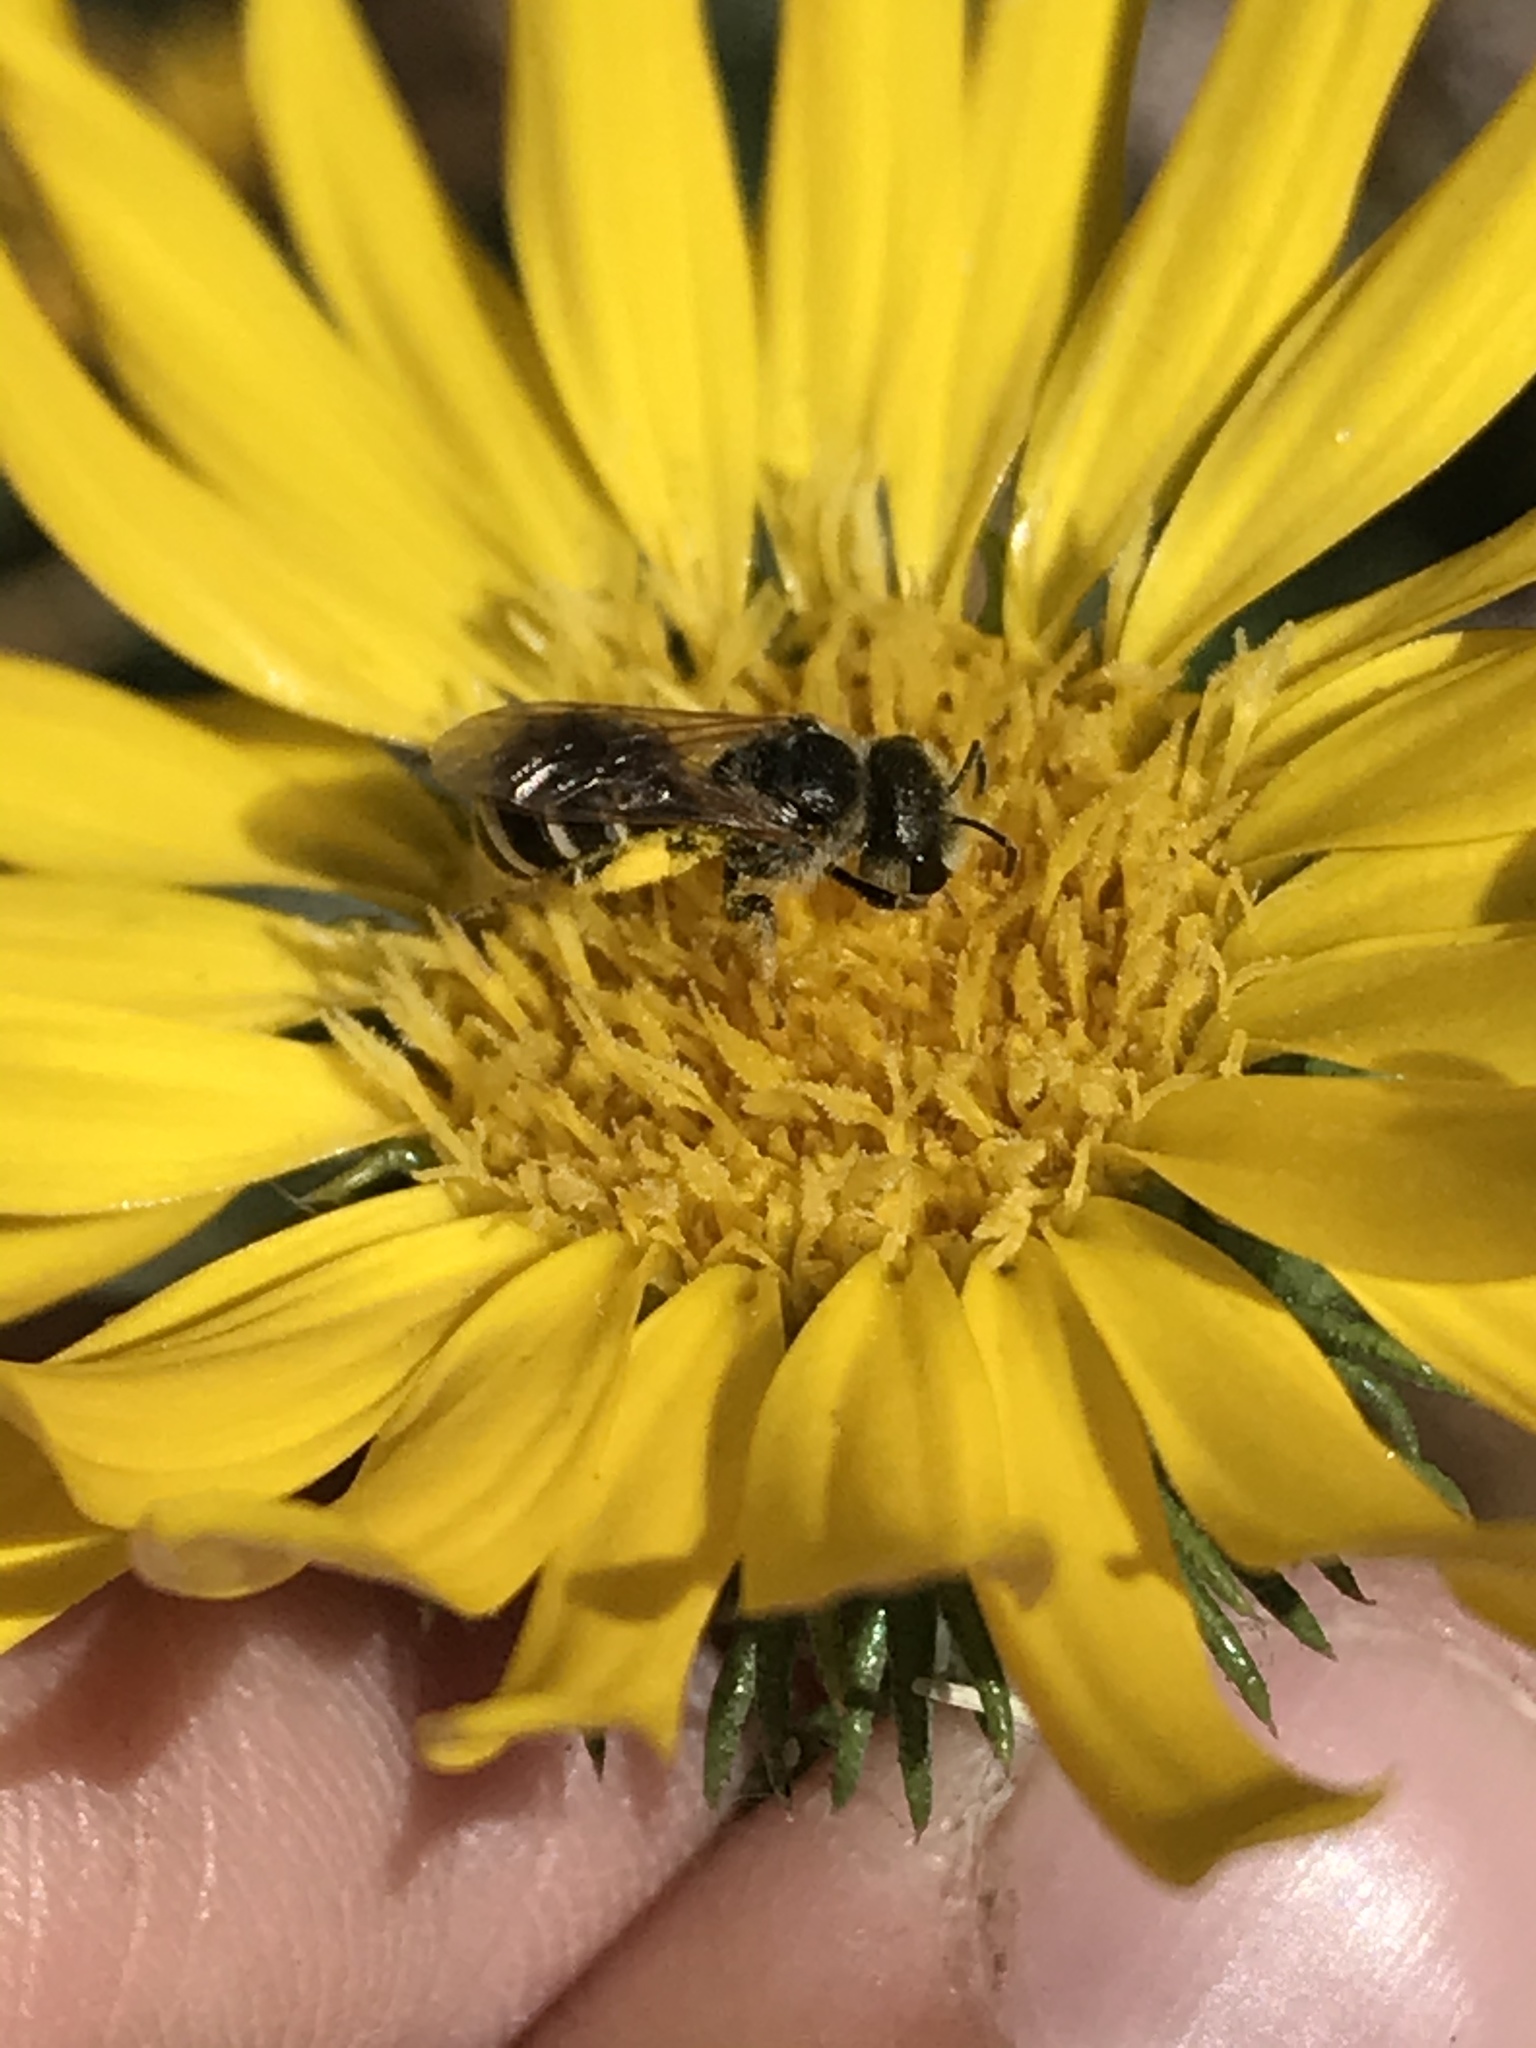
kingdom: Animalia
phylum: Arthropoda
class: Insecta
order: Hymenoptera
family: Halictidae
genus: Halictus
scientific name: Halictus ligatus
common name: Ligated furrow bee
